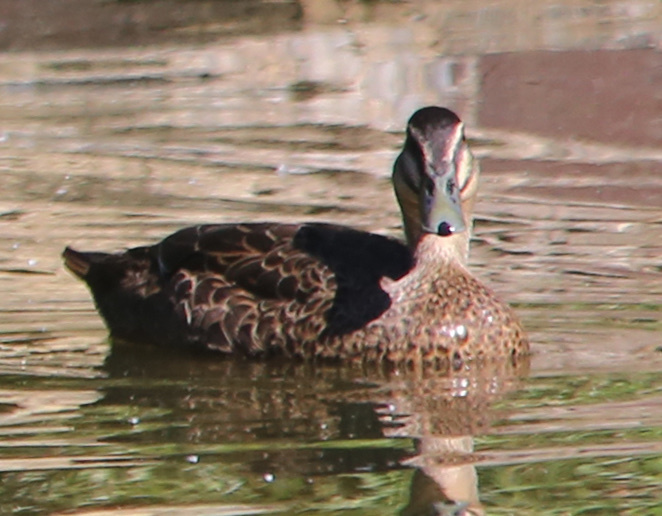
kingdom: Animalia
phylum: Chordata
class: Aves
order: Anseriformes
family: Anatidae
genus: Anas
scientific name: Anas superciliosa
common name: Pacific black duck
